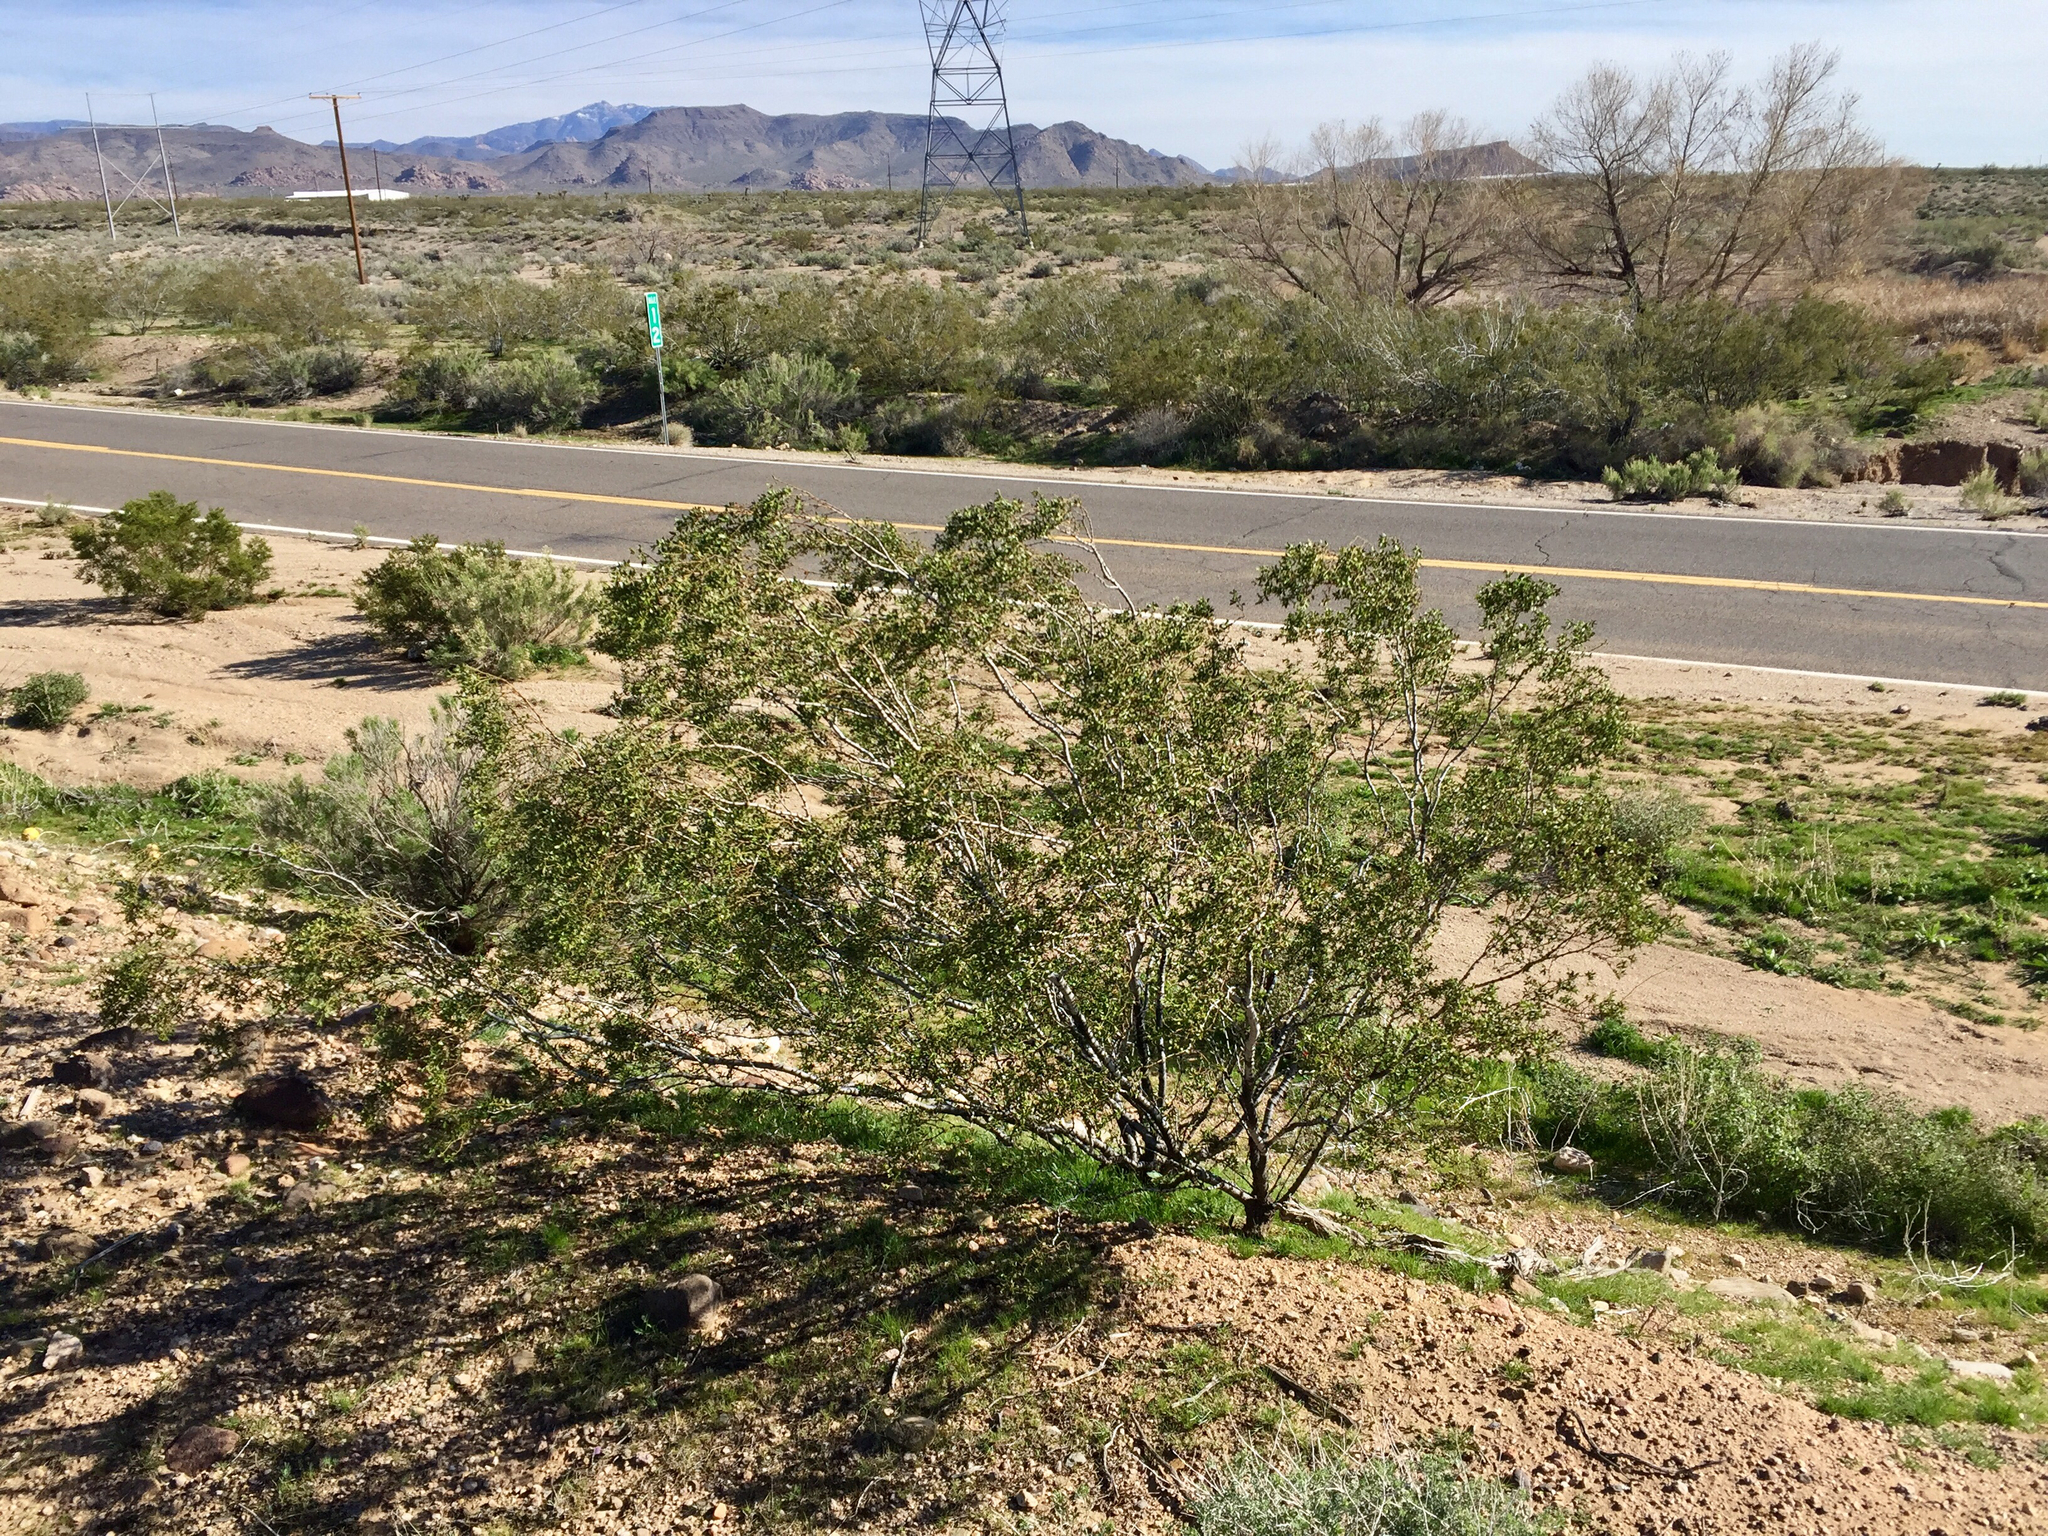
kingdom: Plantae
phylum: Tracheophyta
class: Magnoliopsida
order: Zygophyllales
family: Zygophyllaceae
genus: Larrea
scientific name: Larrea tridentata
